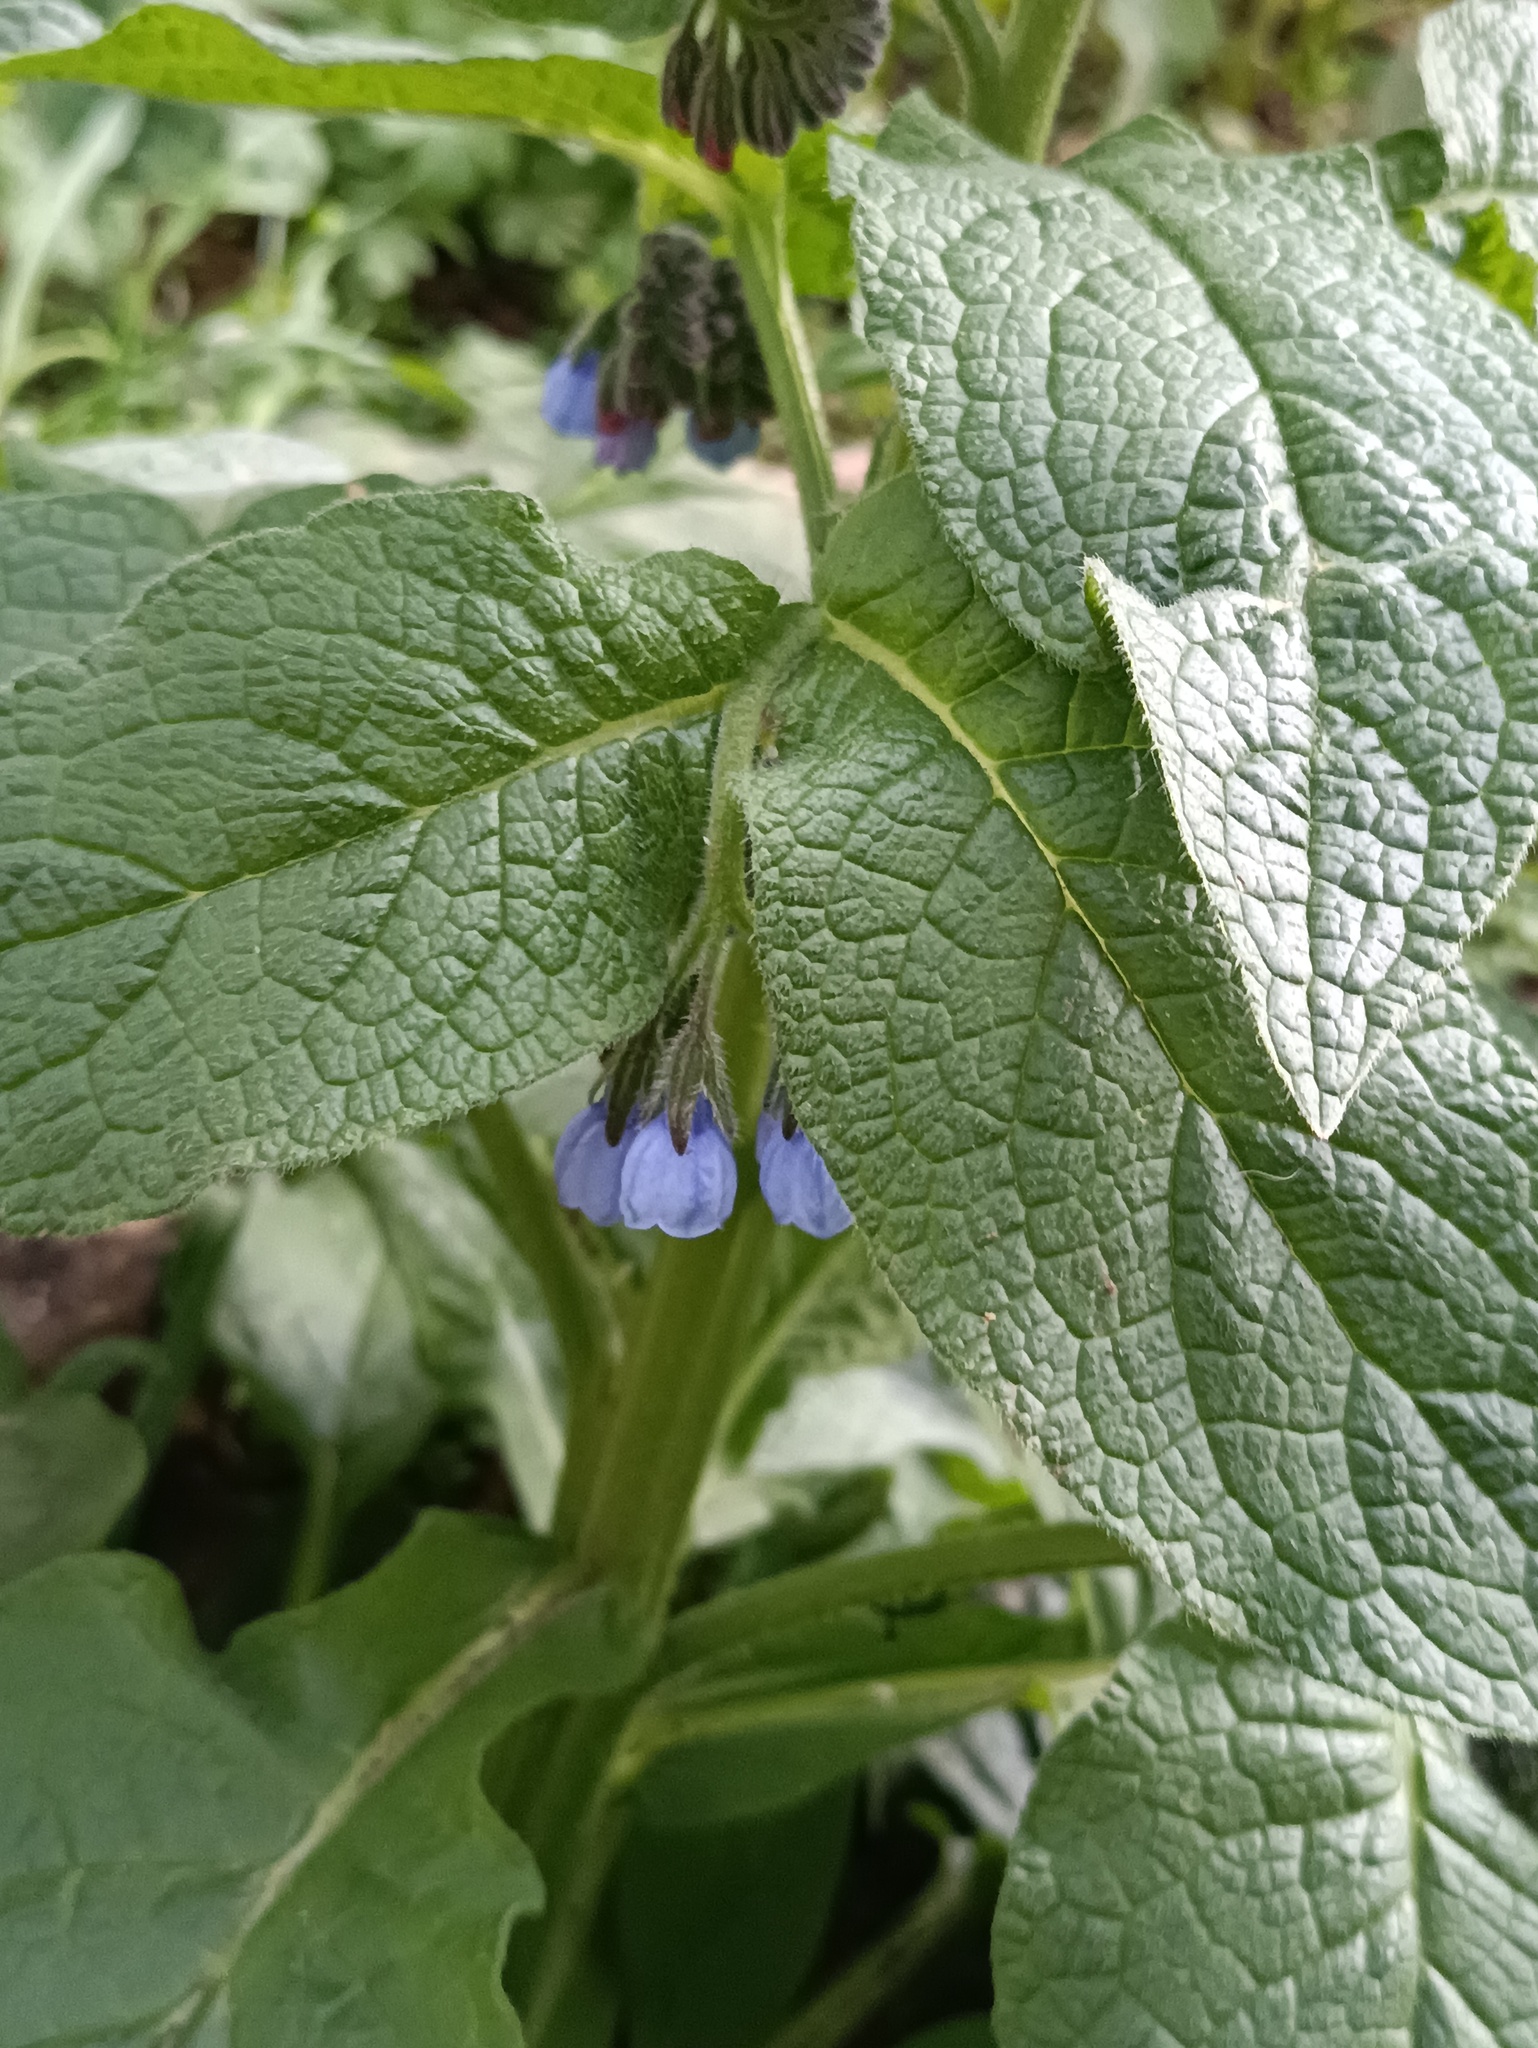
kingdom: Plantae
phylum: Tracheophyta
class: Magnoliopsida
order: Boraginales
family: Boraginaceae
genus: Symphytum
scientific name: Symphytum caucasicum
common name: Caucasian comfrey
